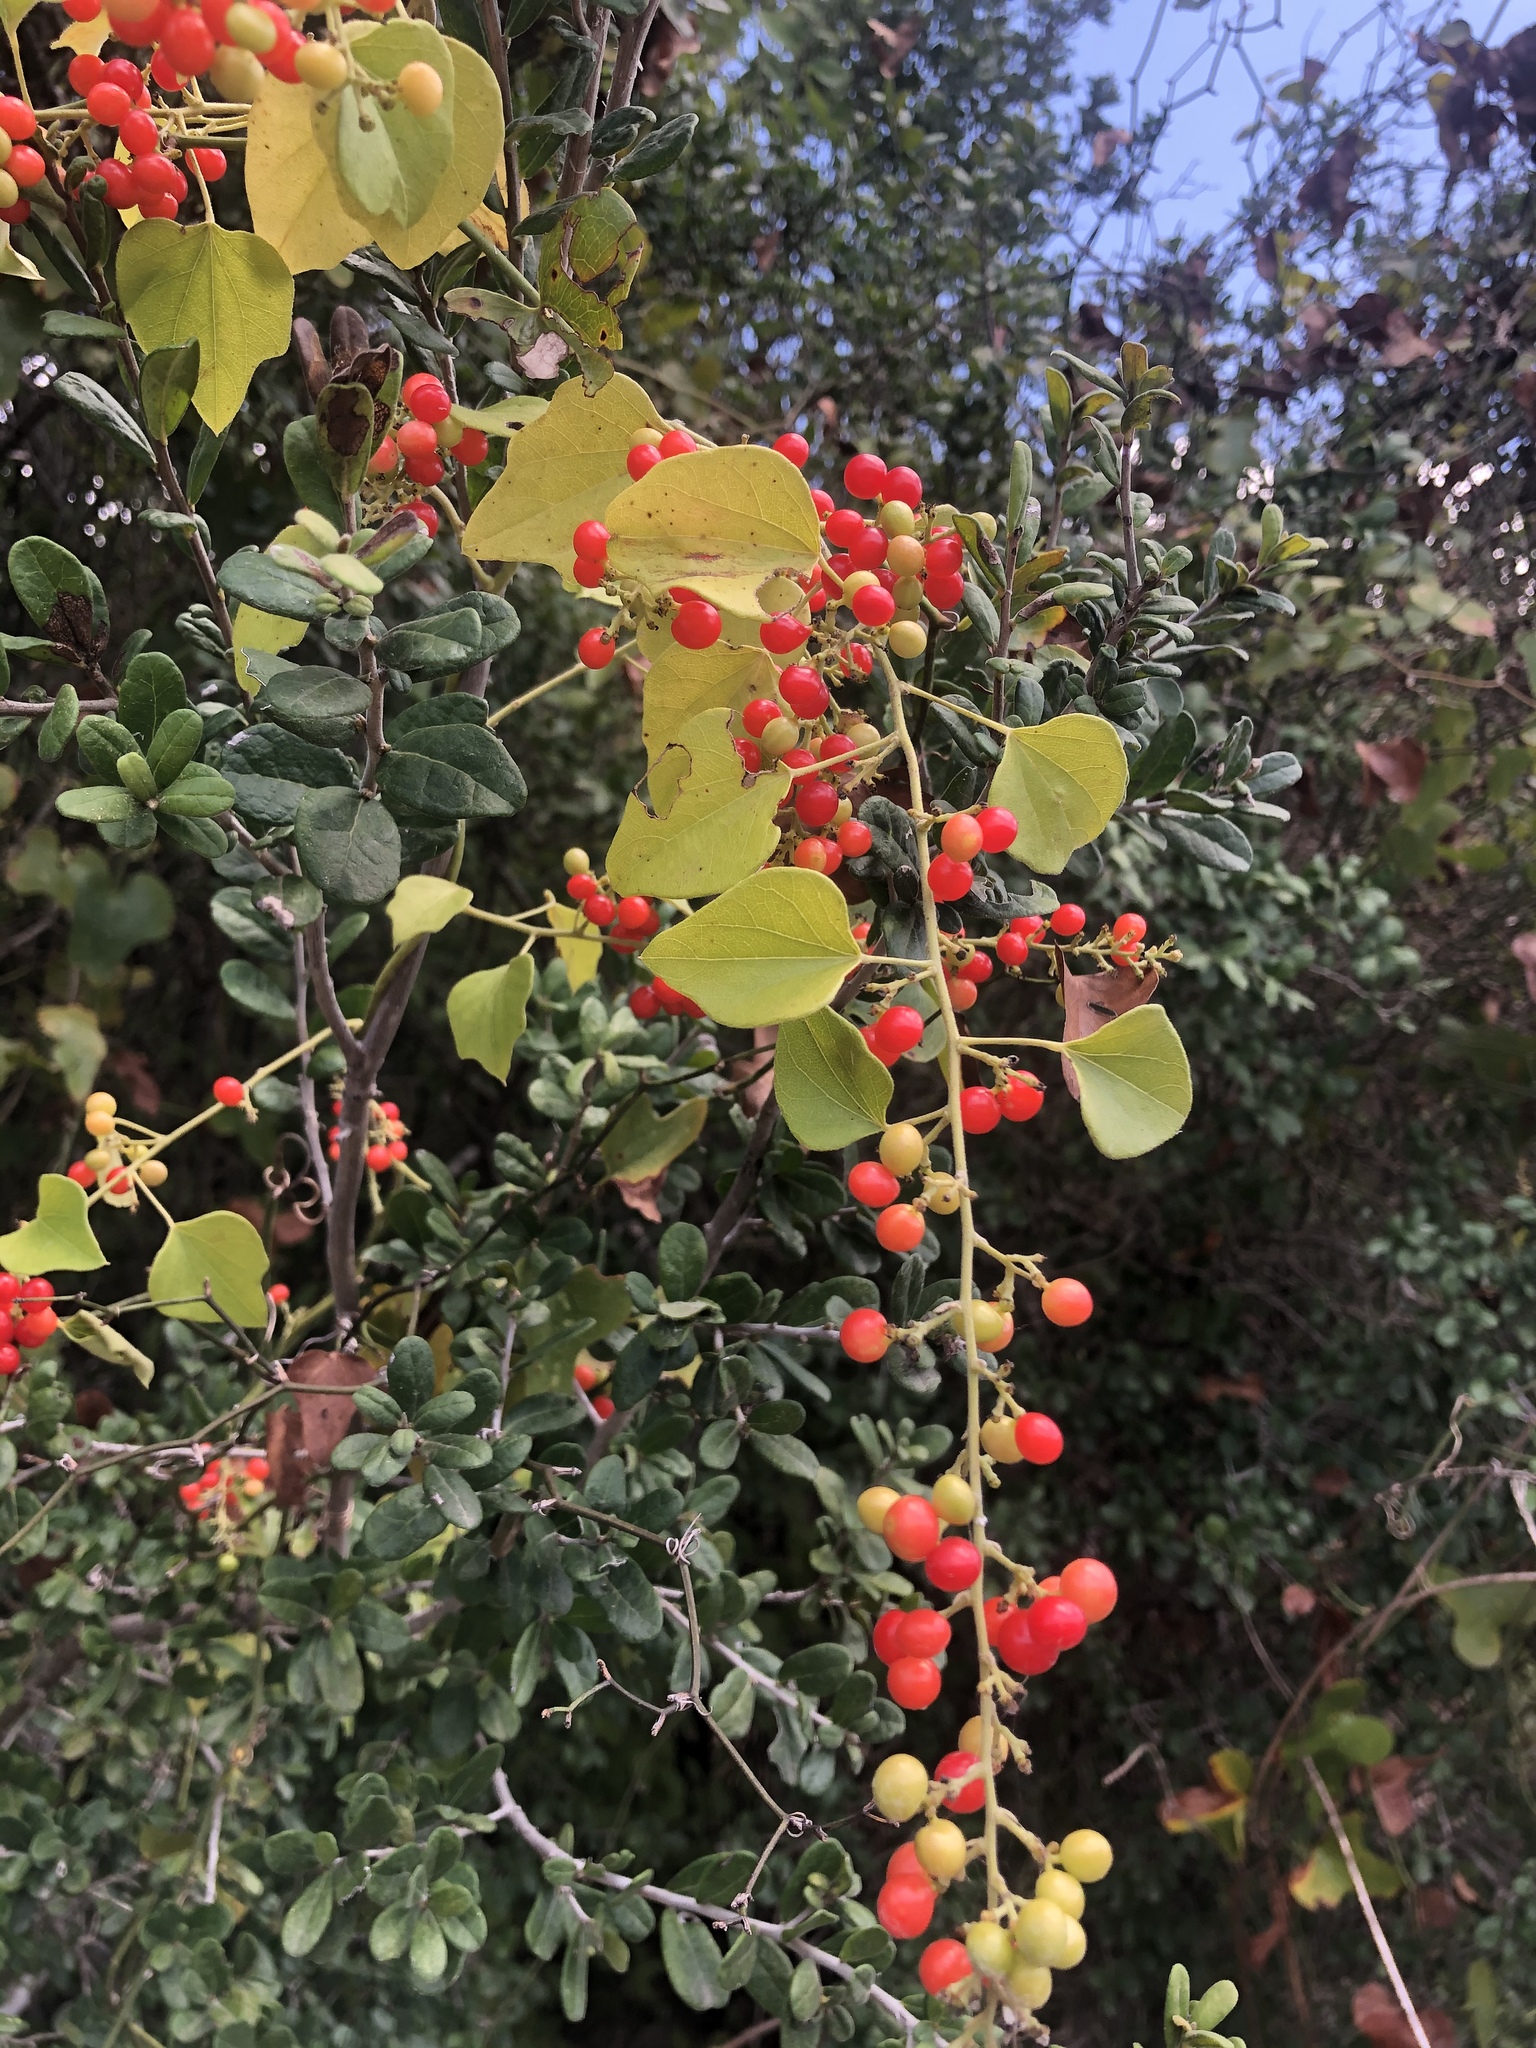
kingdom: Plantae
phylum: Tracheophyta
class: Magnoliopsida
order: Ranunculales
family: Menispermaceae
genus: Cocculus
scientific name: Cocculus carolinus
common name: Carolina moonseed
